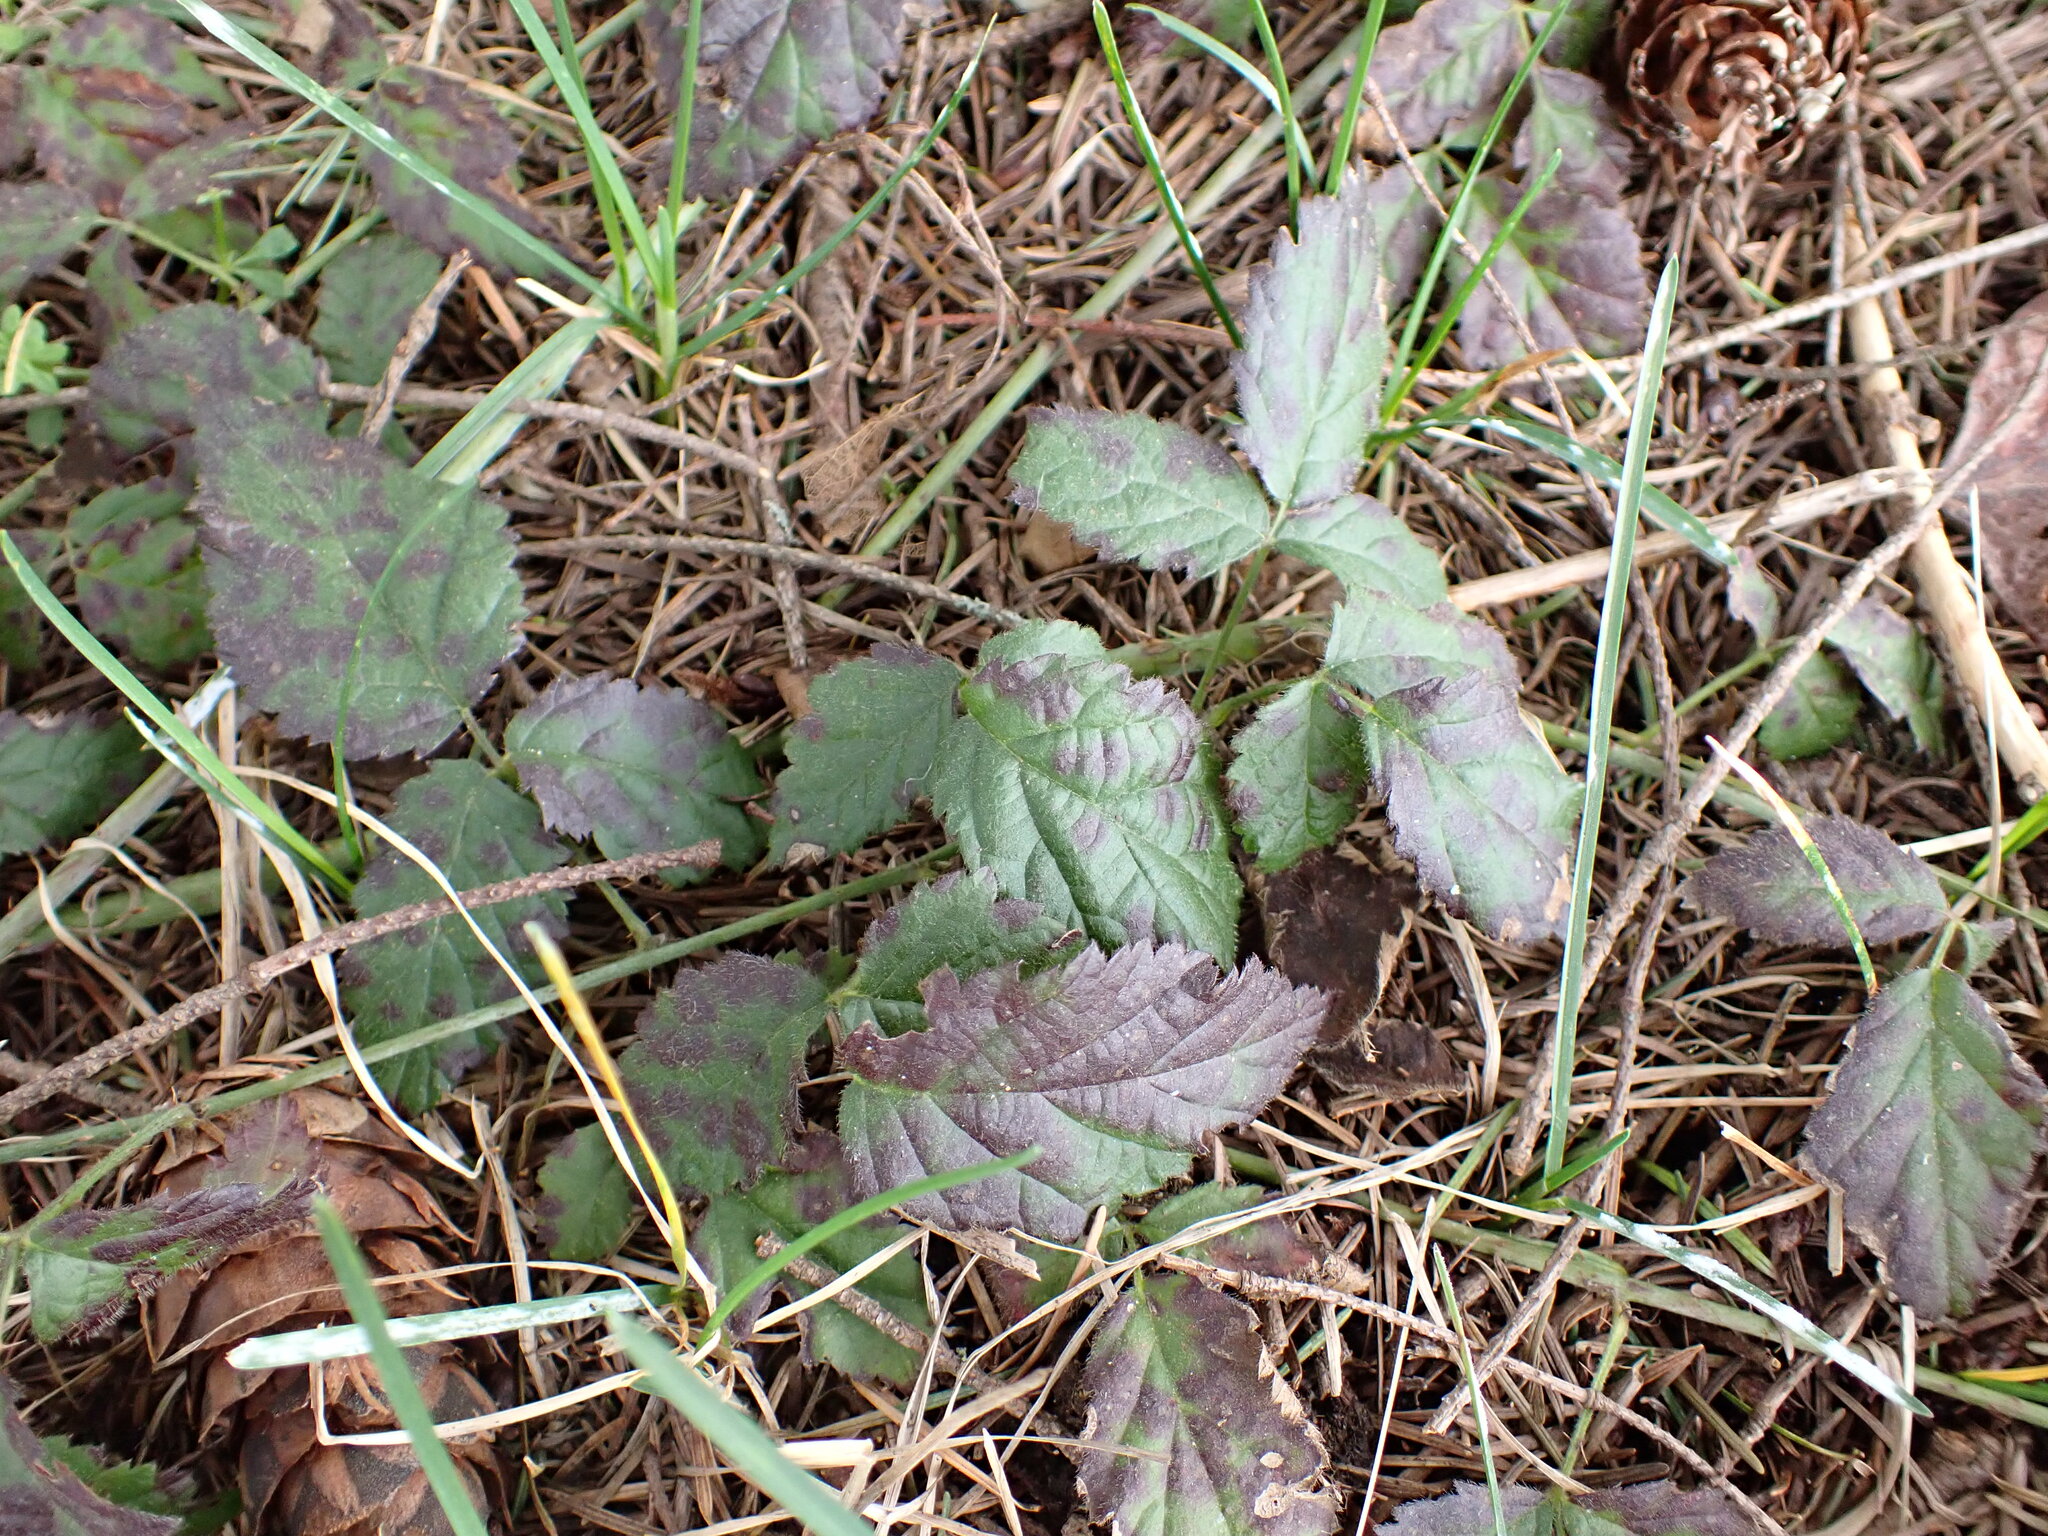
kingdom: Plantae
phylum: Tracheophyta
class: Magnoliopsida
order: Rosales
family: Rosaceae
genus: Rubus
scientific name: Rubus ursinus
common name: Pacific blackberry
